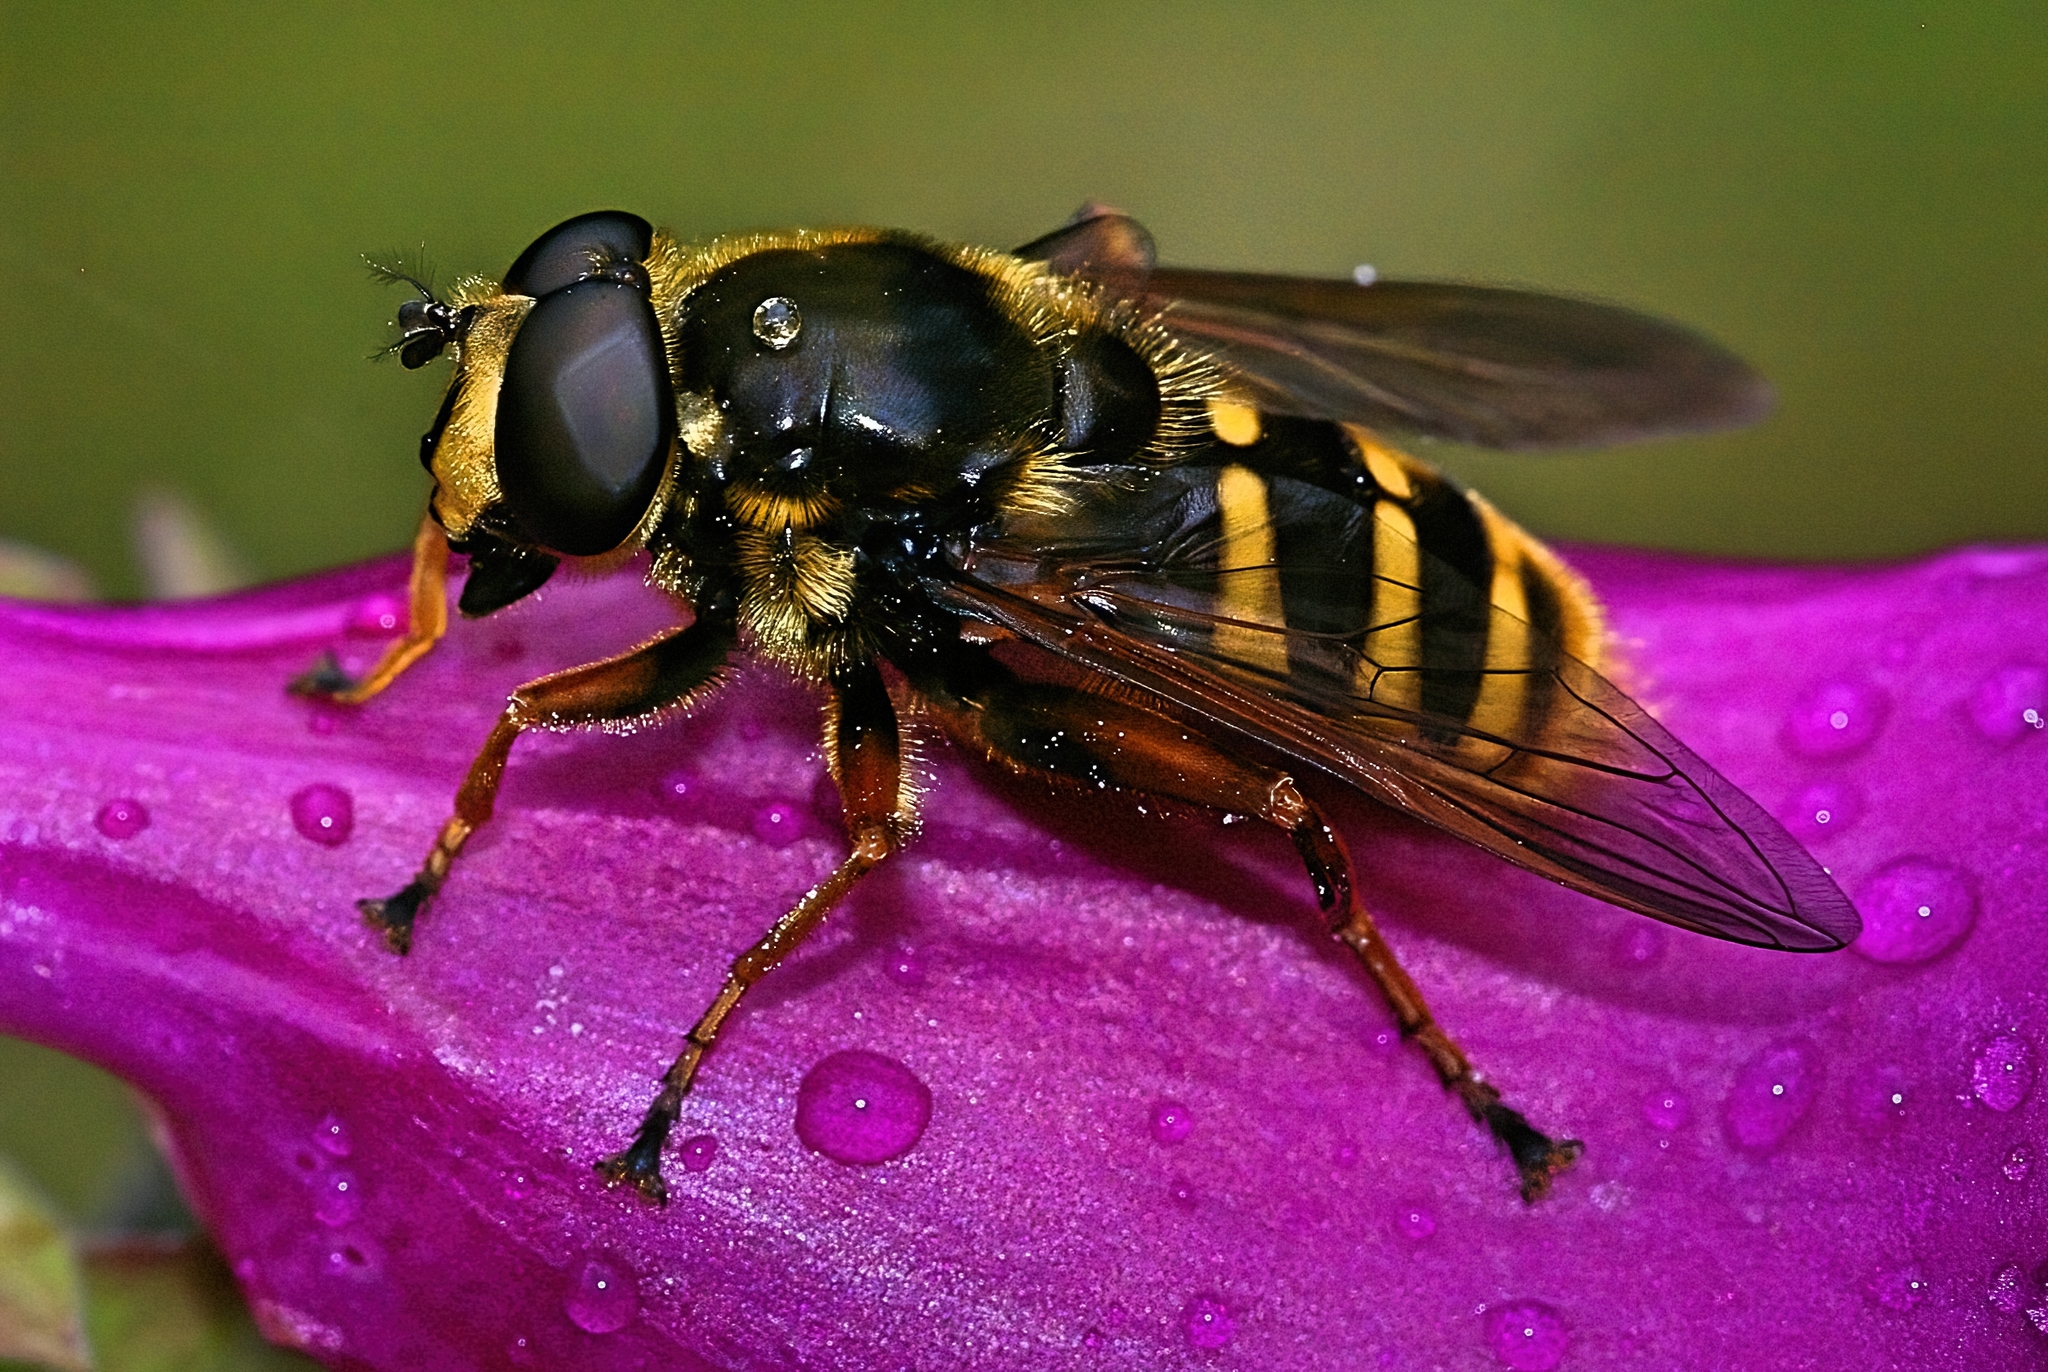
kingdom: Animalia
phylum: Arthropoda
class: Insecta
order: Diptera
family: Syrphidae
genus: Sericomyia
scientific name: Sericomyia silentis
